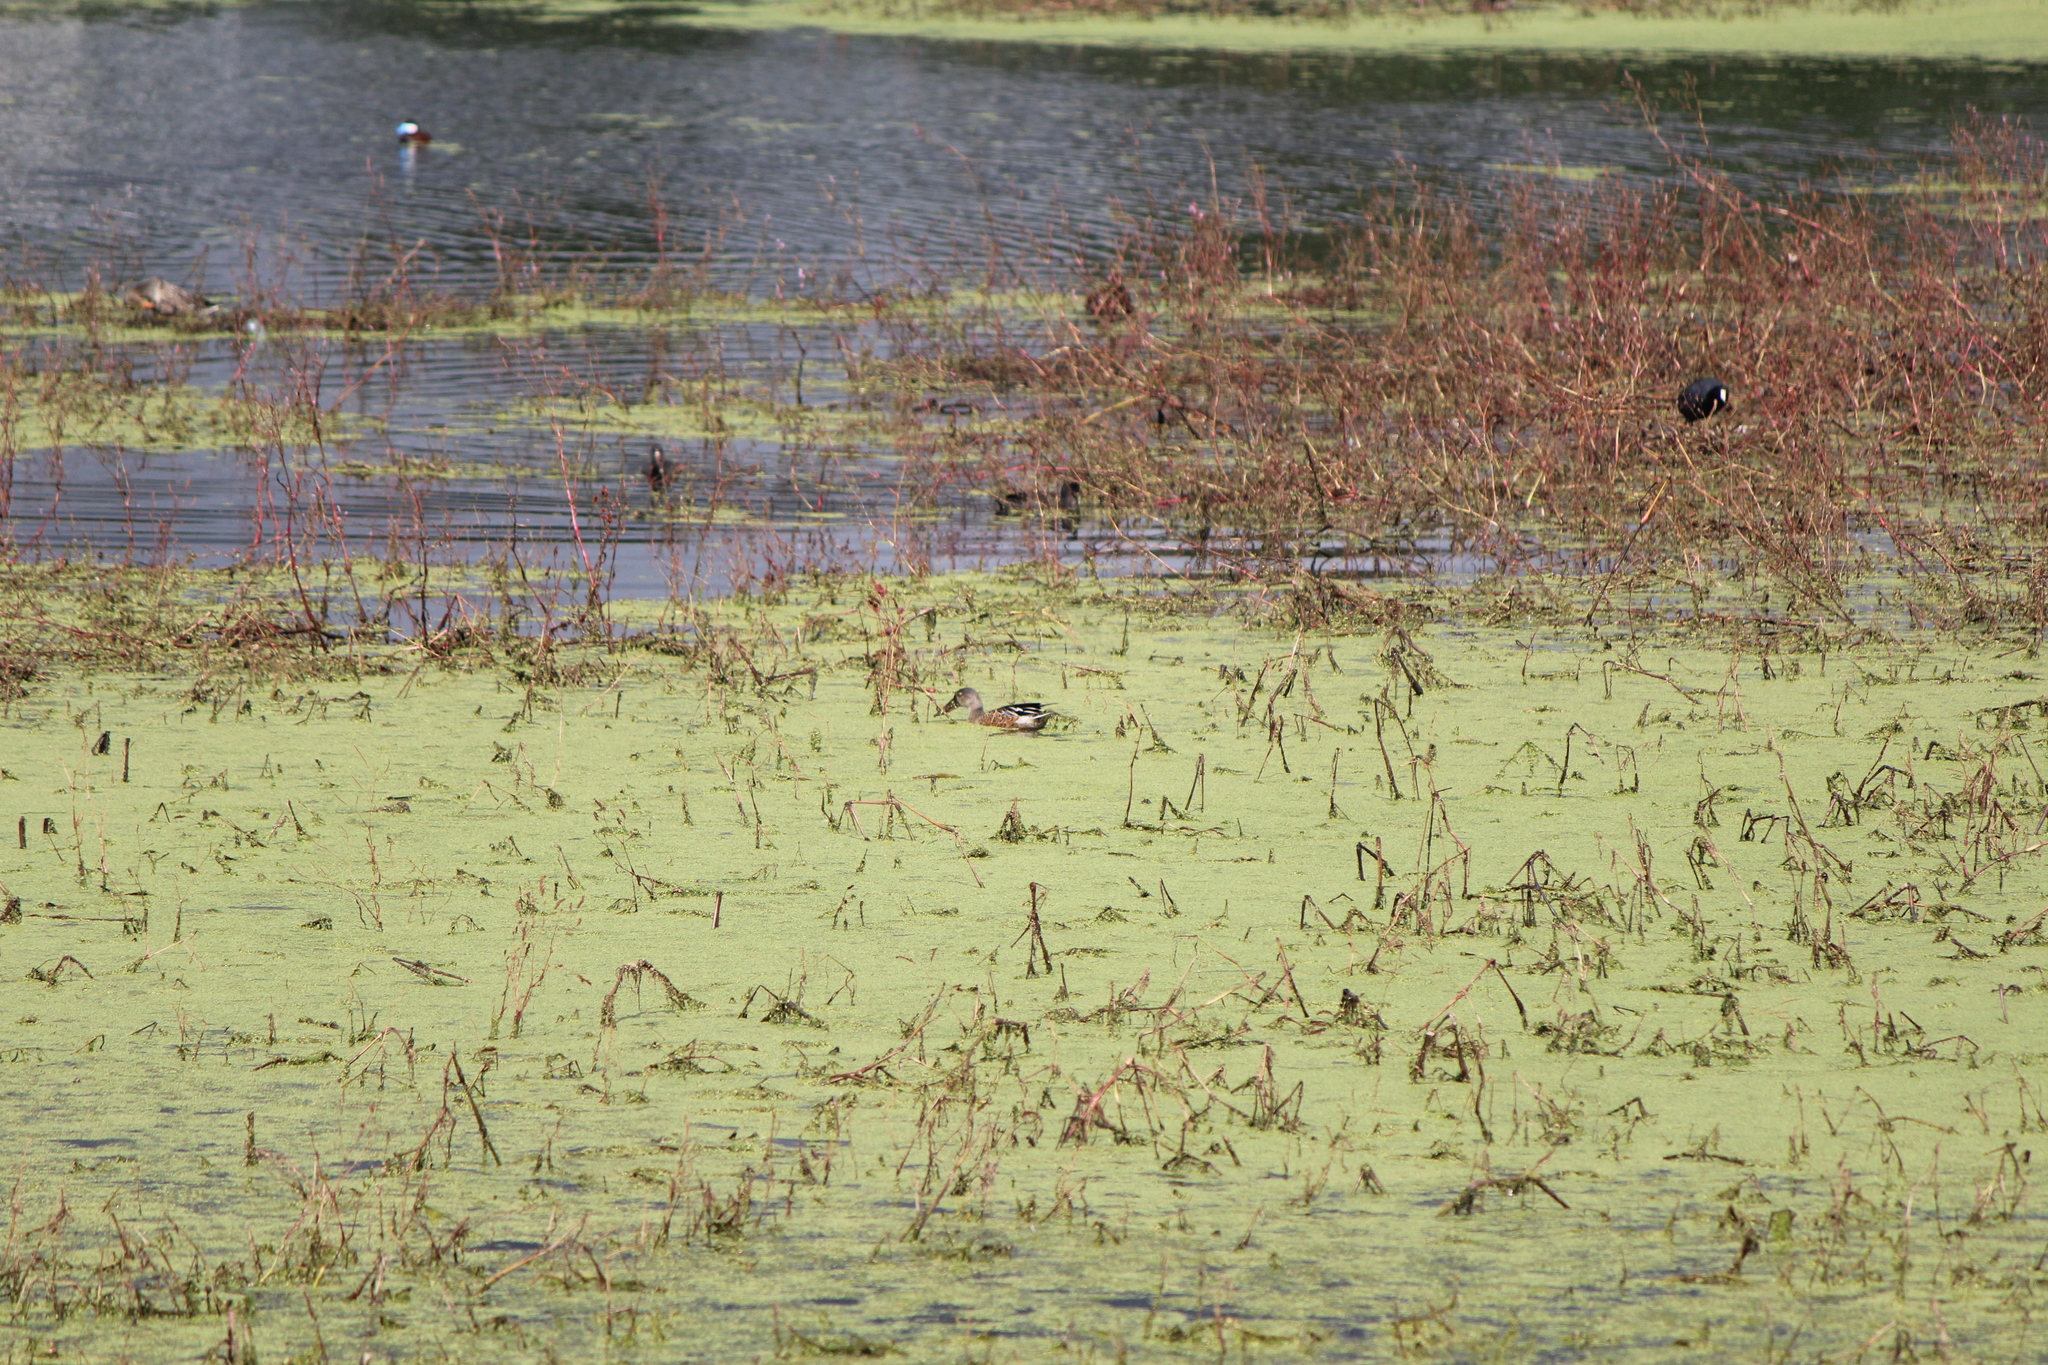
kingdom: Animalia
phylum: Chordata
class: Aves
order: Anseriformes
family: Anatidae
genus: Spatula
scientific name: Spatula clypeata
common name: Northern shoveler
